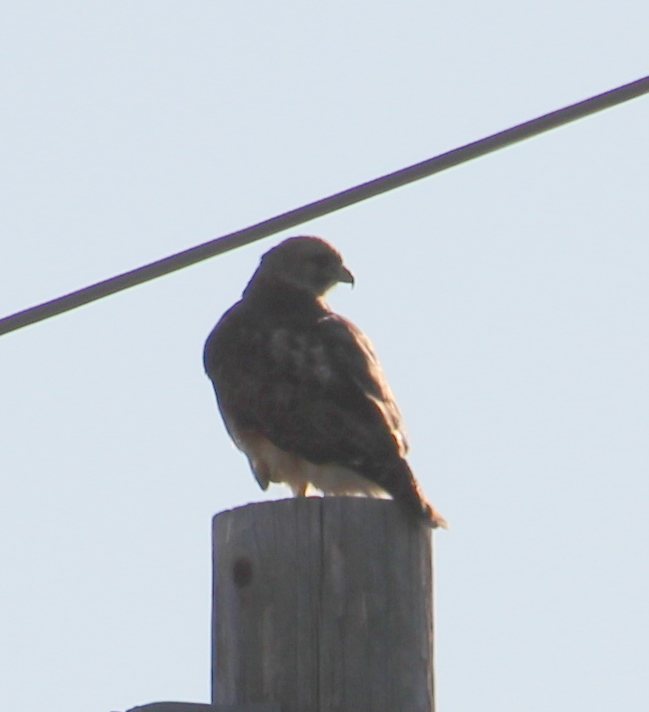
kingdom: Animalia
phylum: Chordata
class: Aves
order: Accipitriformes
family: Accipitridae
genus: Buteo
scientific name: Buteo jamaicensis
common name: Red-tailed hawk
